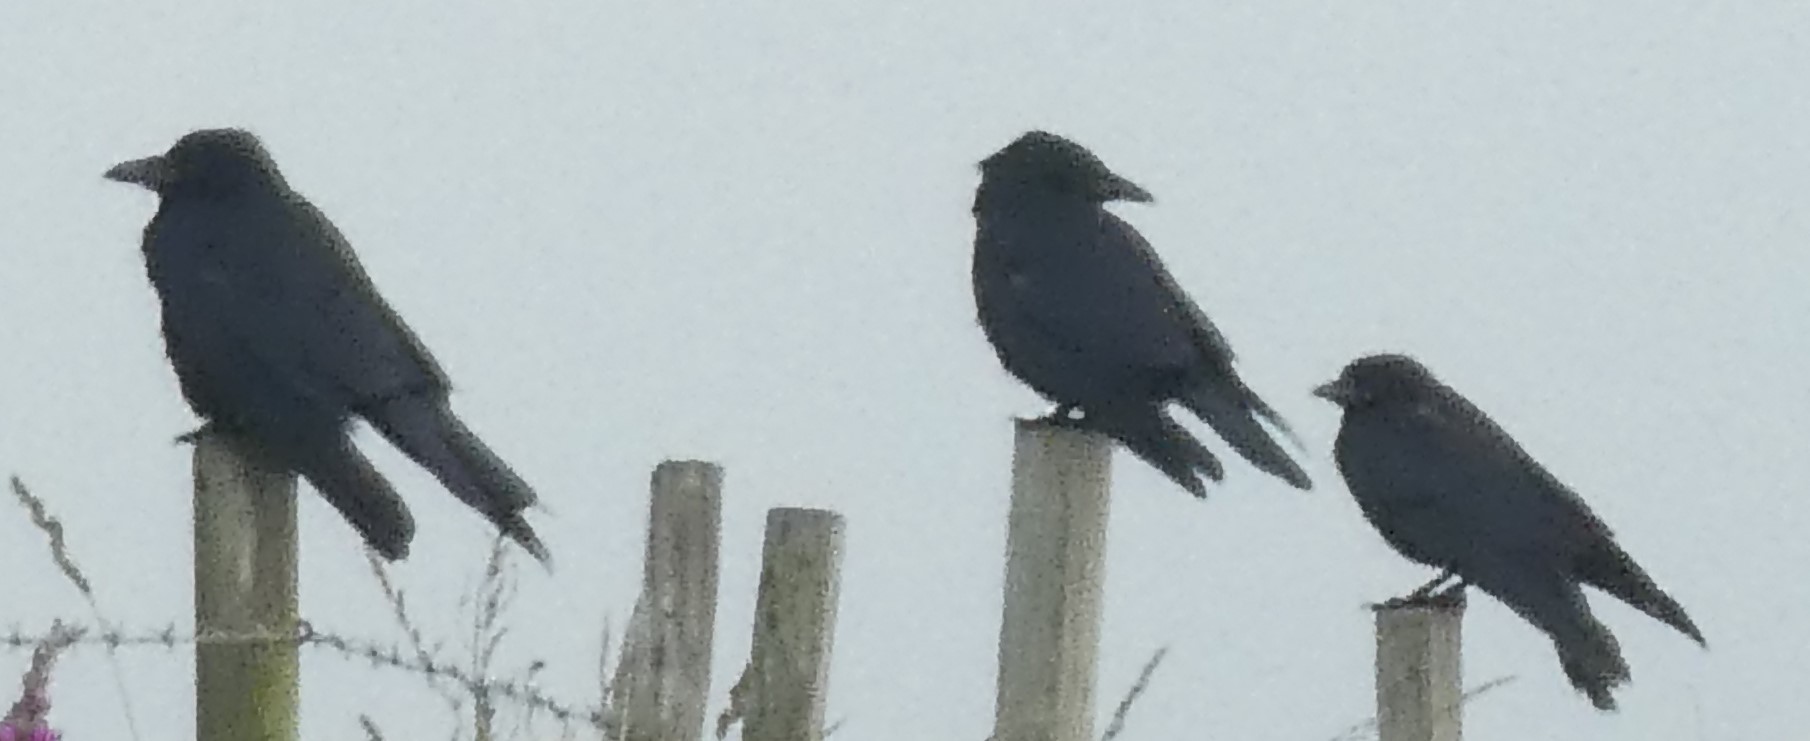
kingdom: Animalia
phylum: Chordata
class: Aves
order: Passeriformes
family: Corvidae
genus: Corvus
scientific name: Corvus corone
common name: Carrion crow
